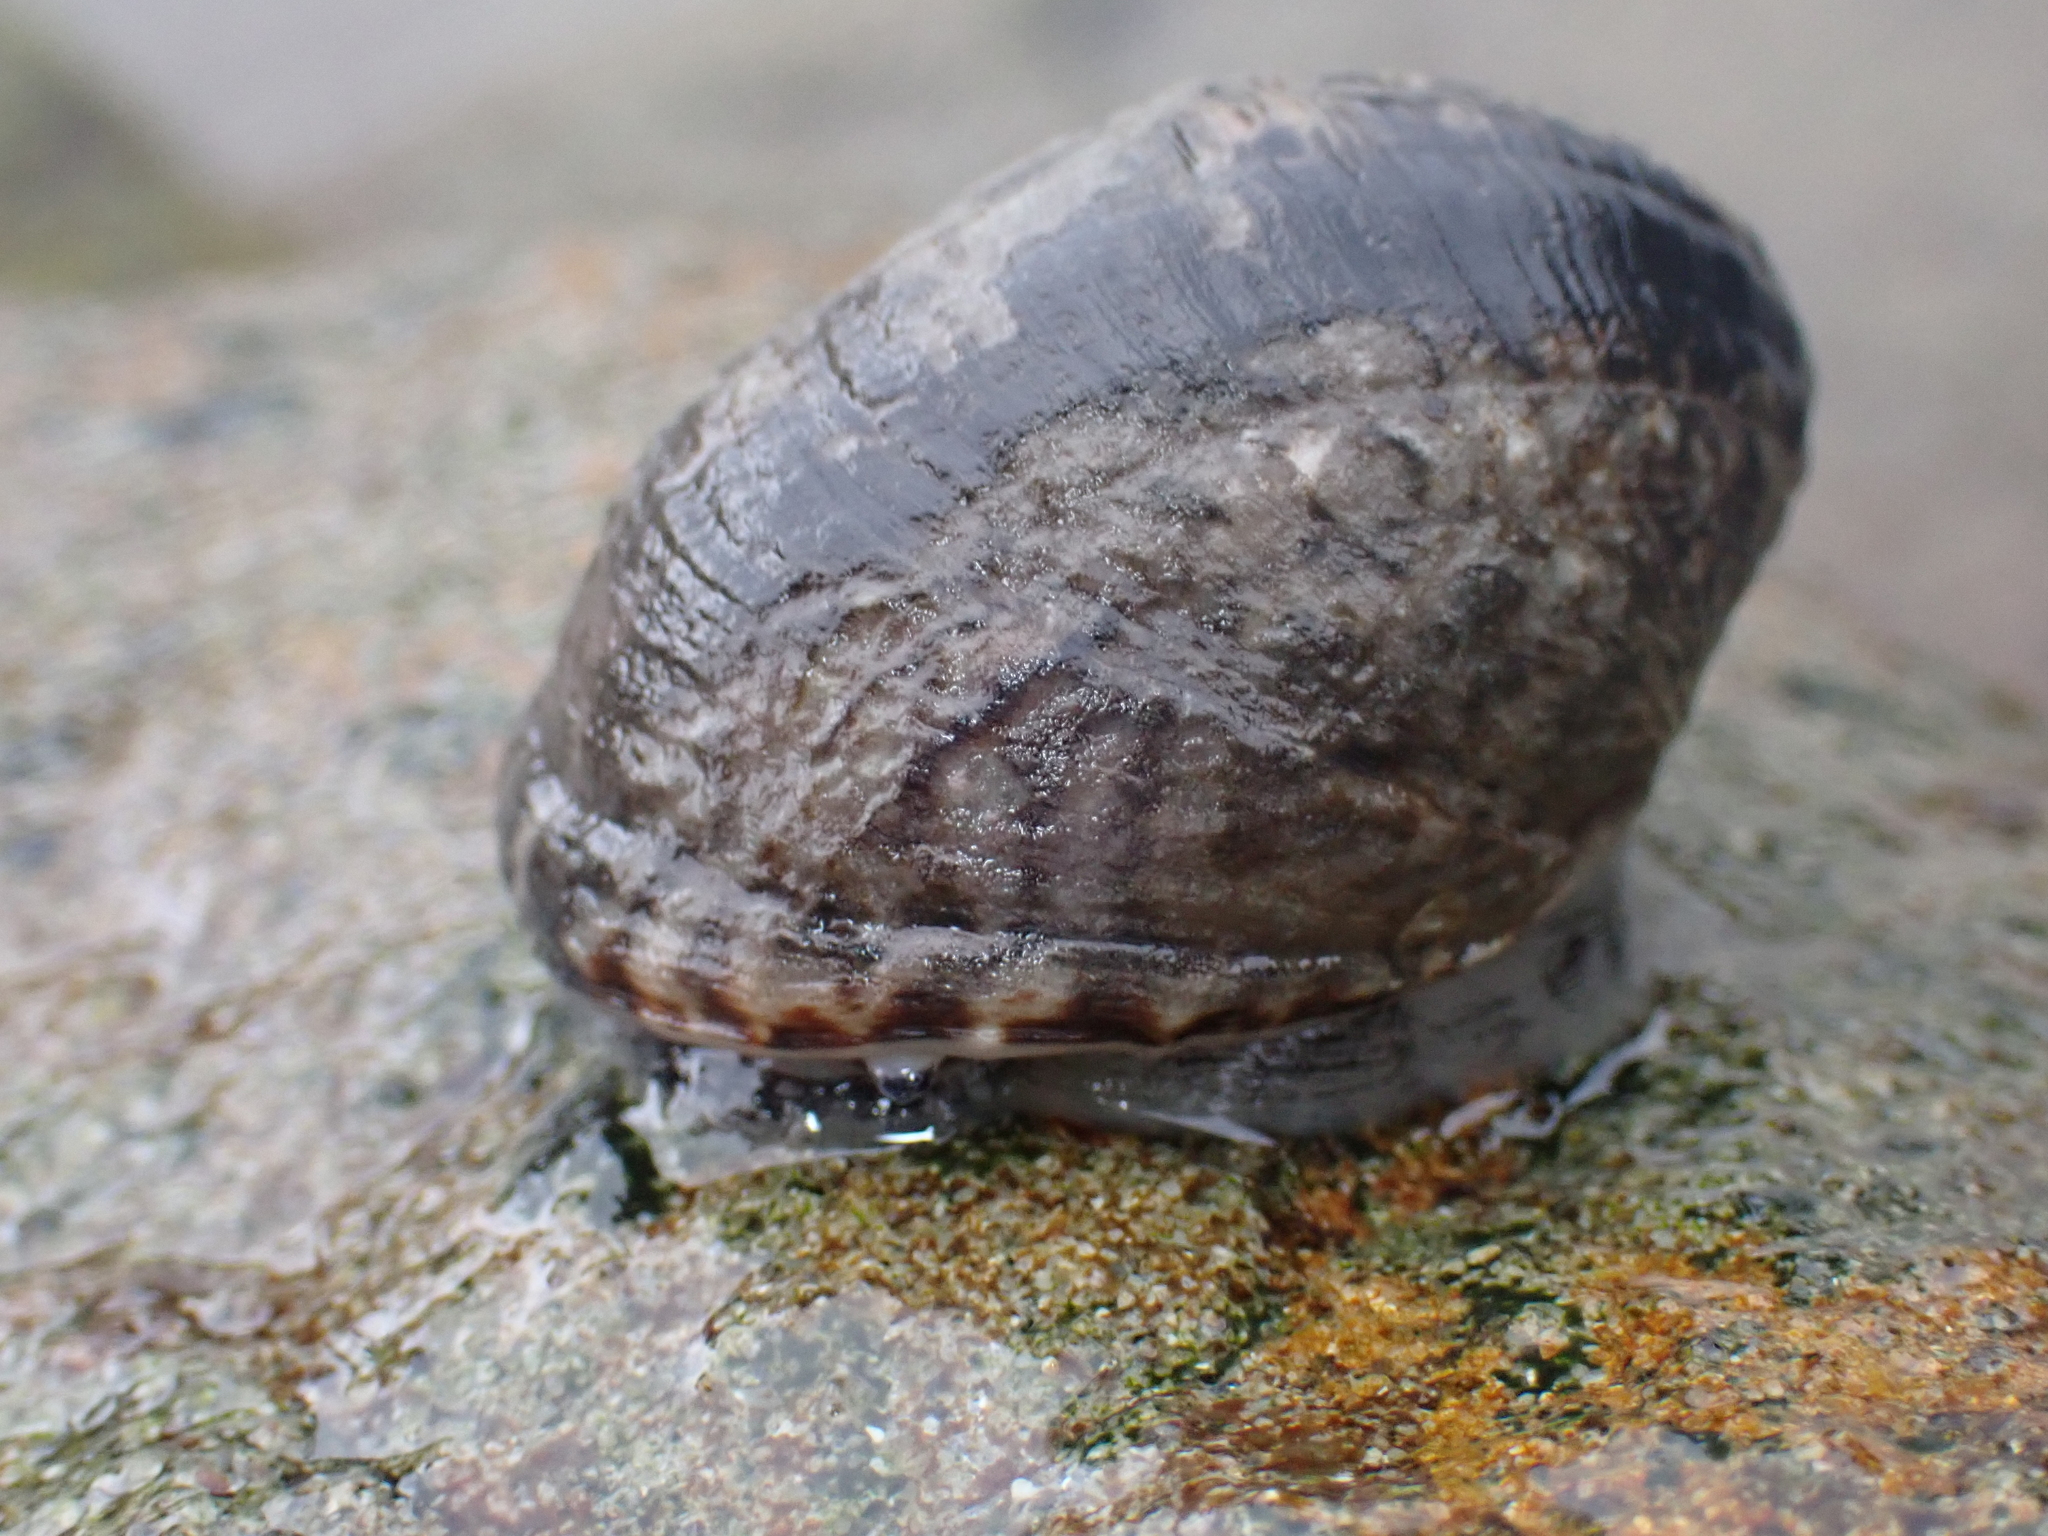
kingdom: Animalia
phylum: Mollusca
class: Gastropoda
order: Cycloneritida
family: Neritidae
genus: Nerita
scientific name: Nerita albicilla
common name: Blotched nerite
